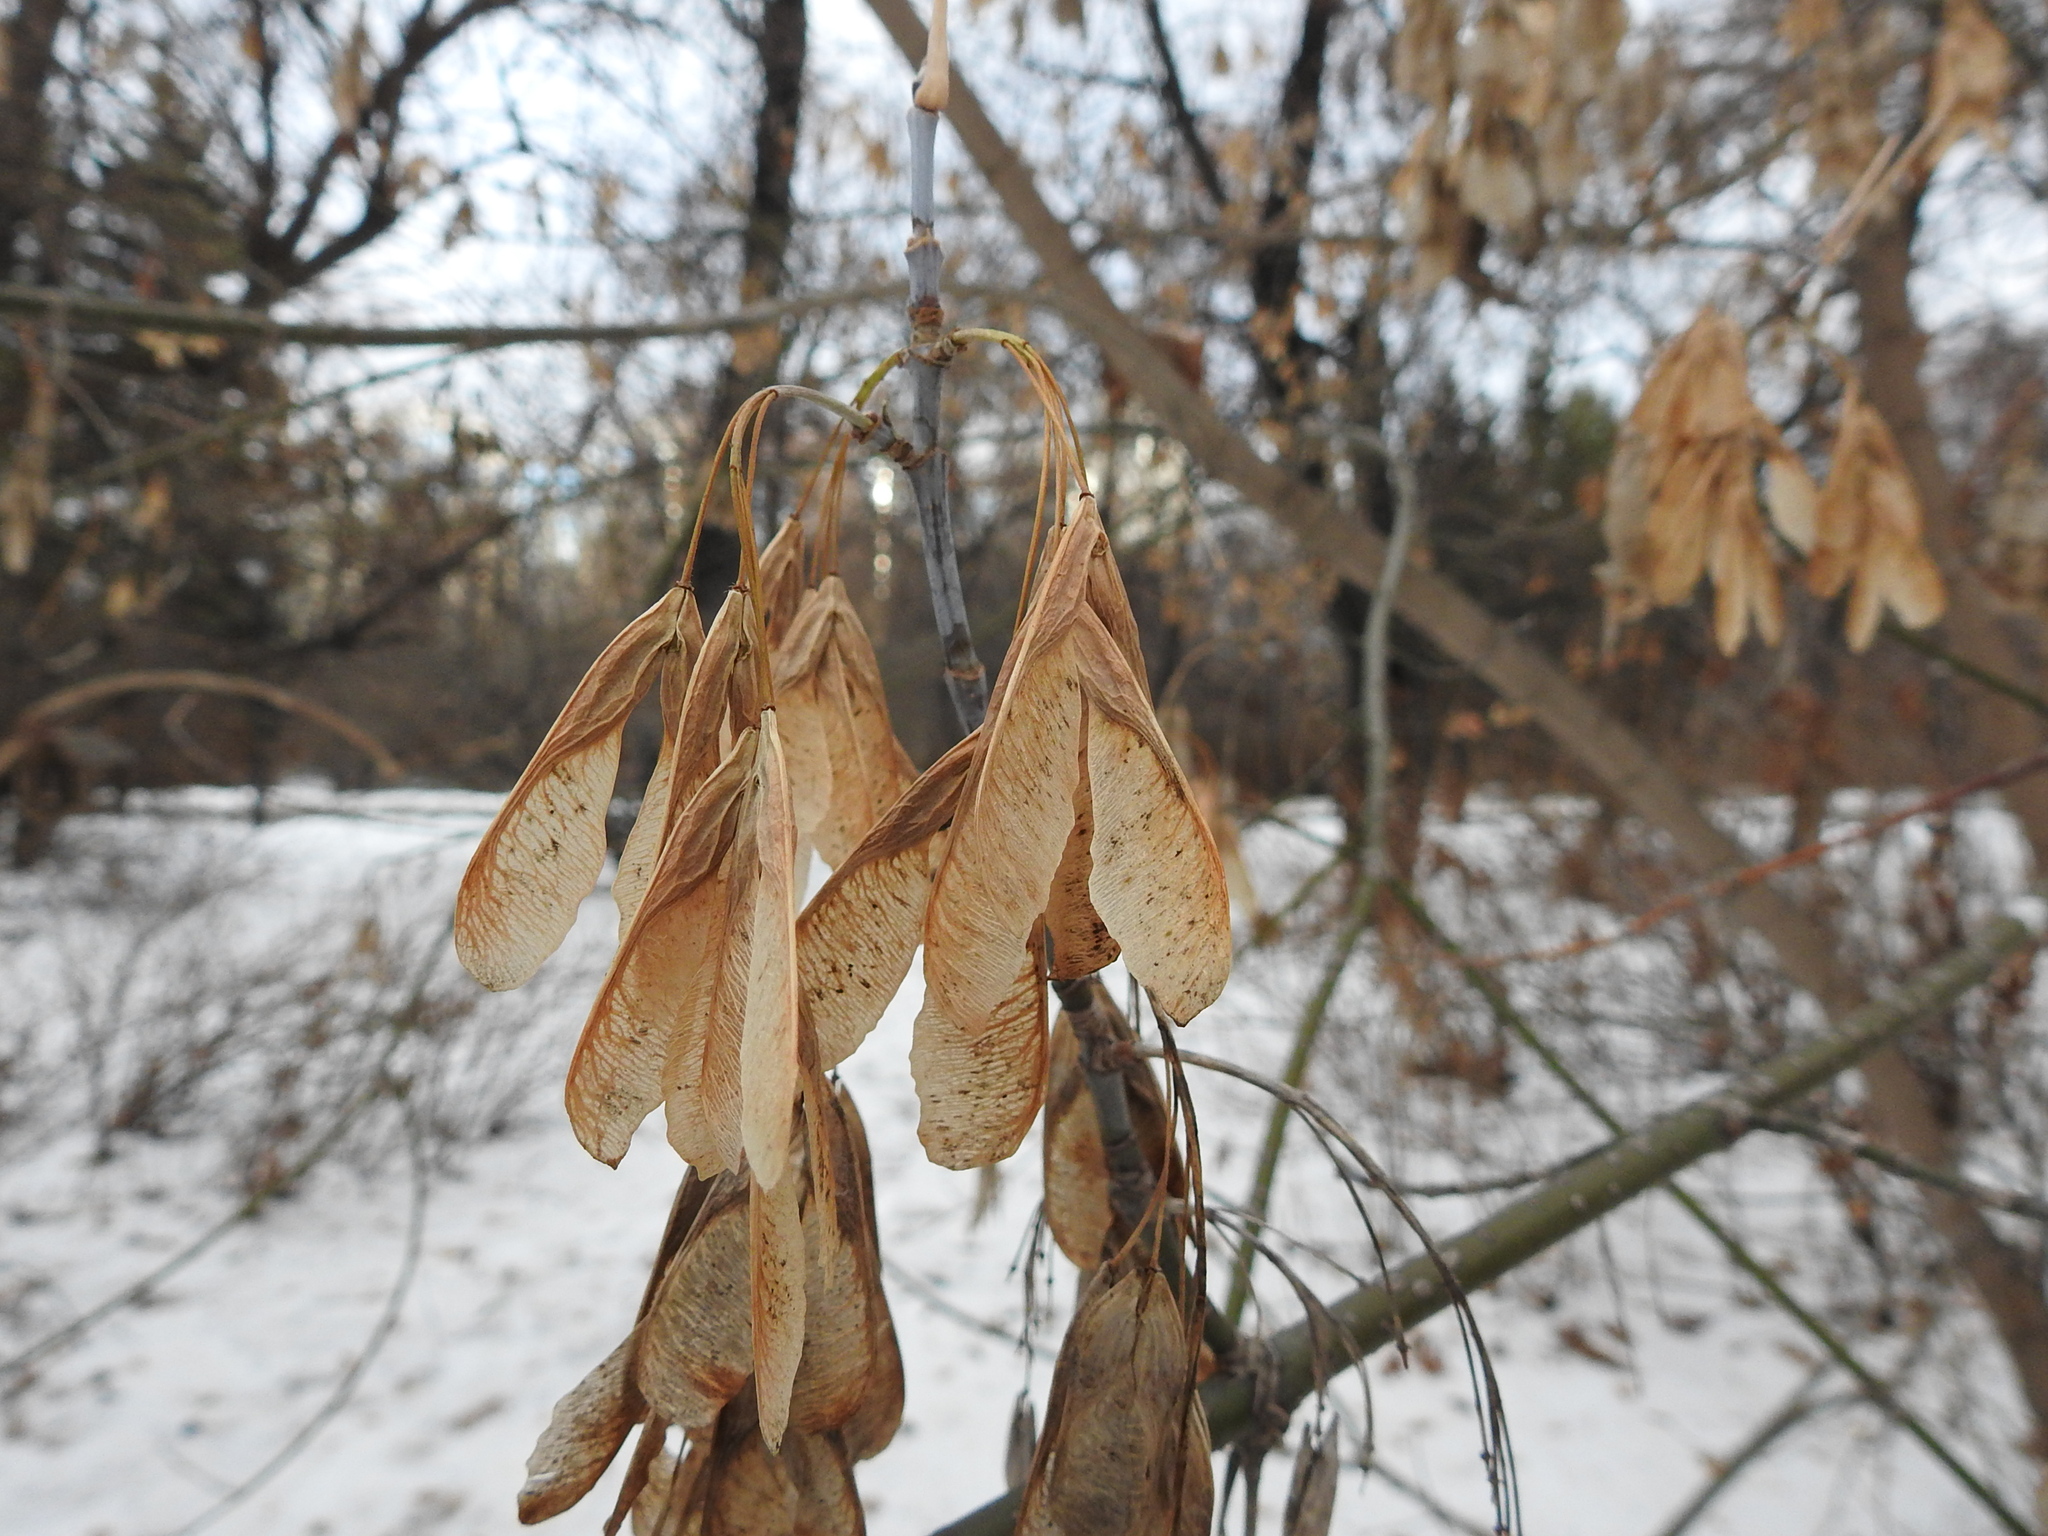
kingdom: Plantae
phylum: Tracheophyta
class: Magnoliopsida
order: Sapindales
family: Sapindaceae
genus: Acer
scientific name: Acer negundo
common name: Ashleaf maple
